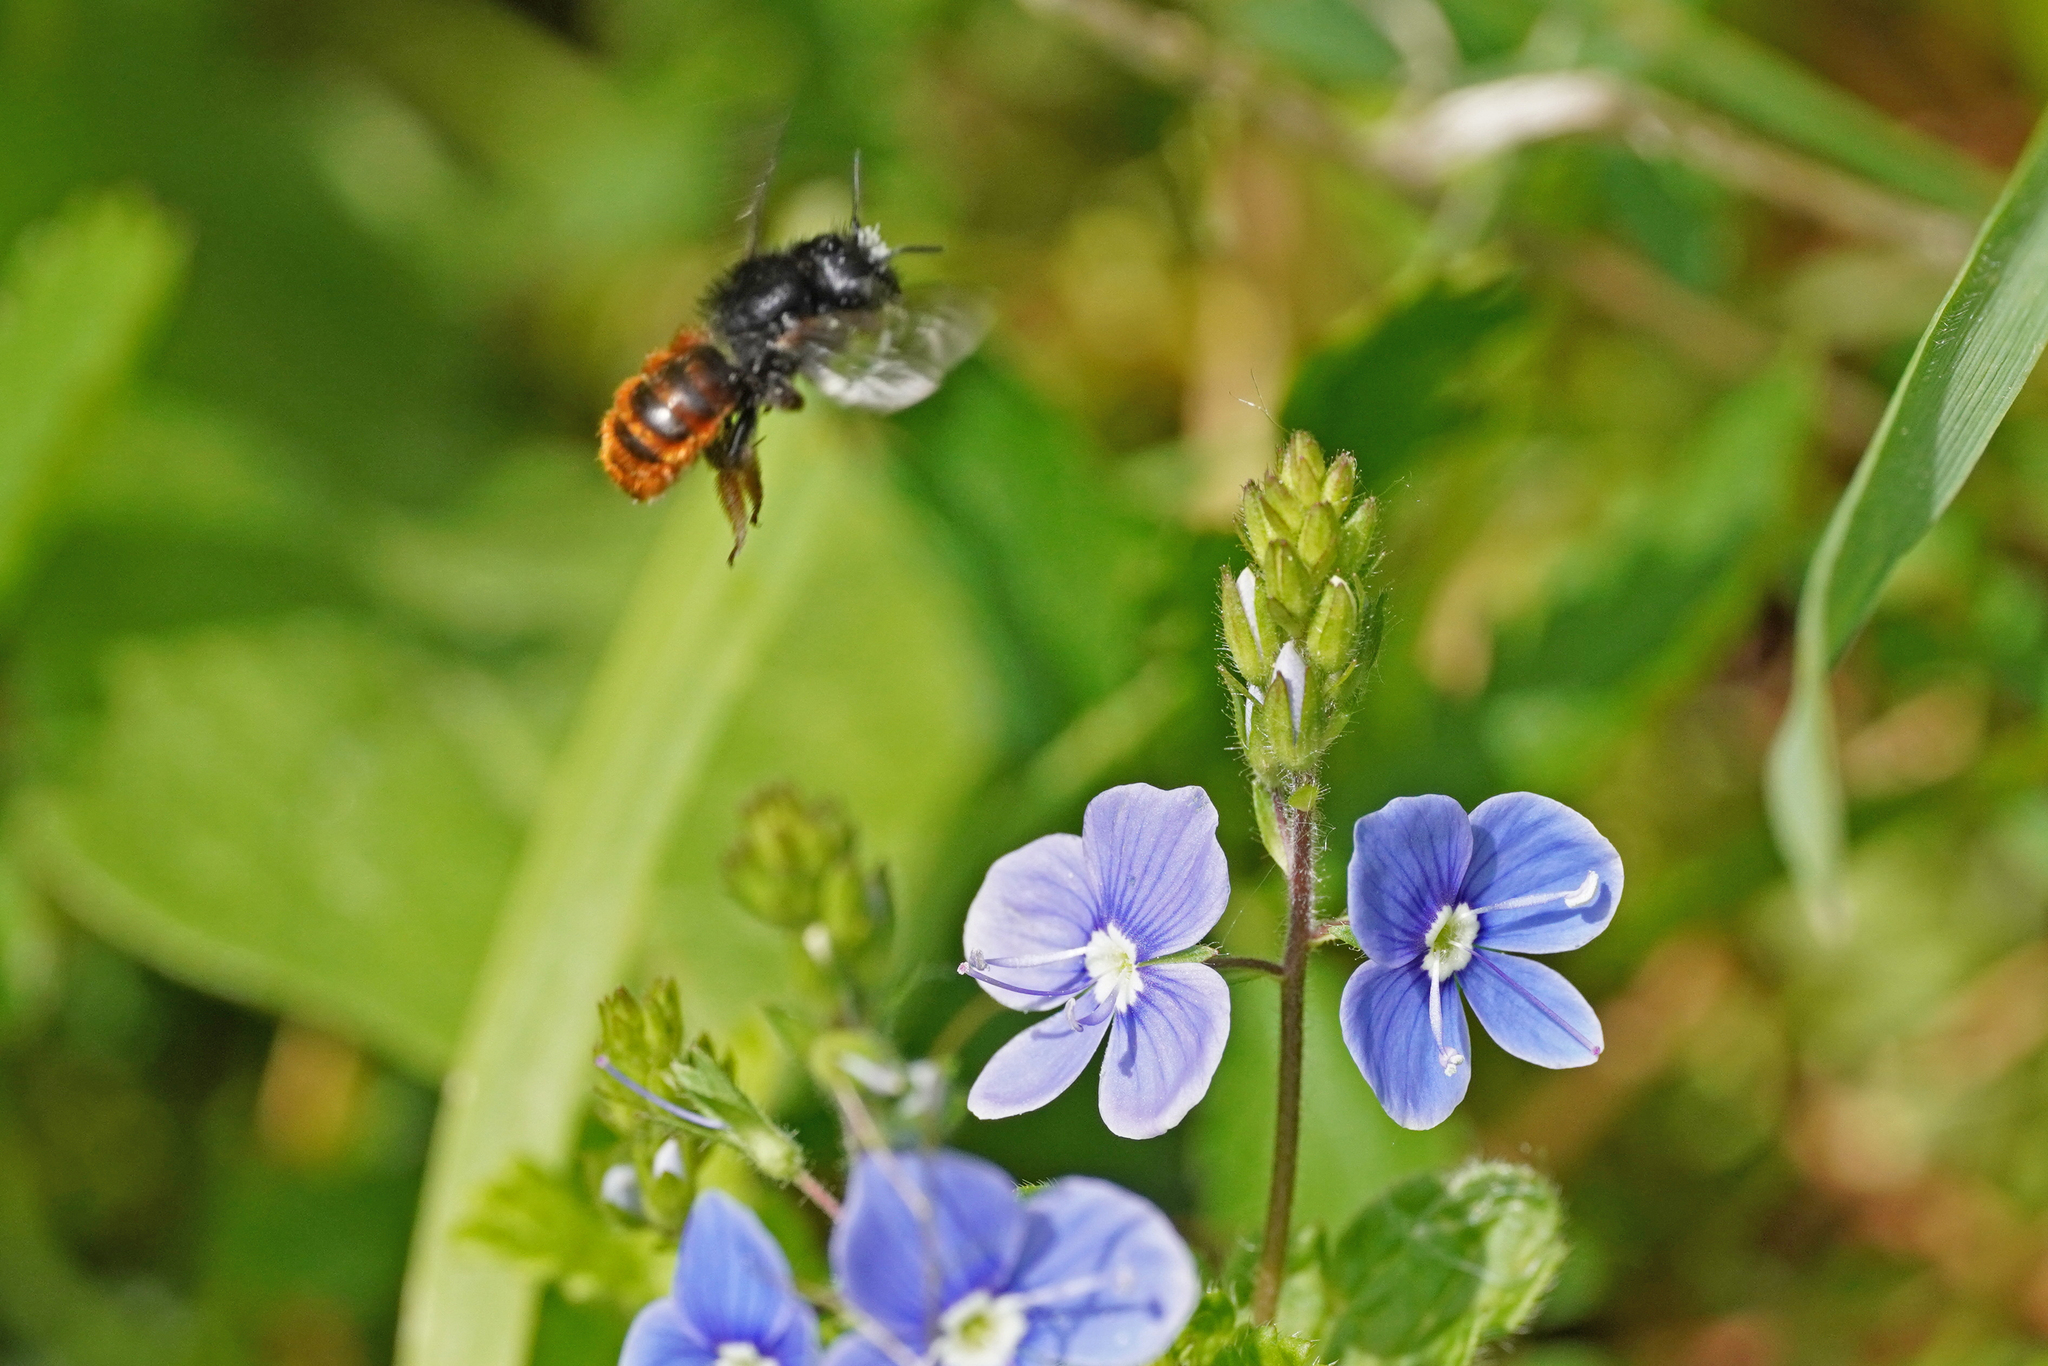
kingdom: Animalia
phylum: Arthropoda
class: Insecta
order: Hymenoptera
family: Megachilidae
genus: Osmia
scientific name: Osmia bicolor
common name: Red-tailed mason bee
